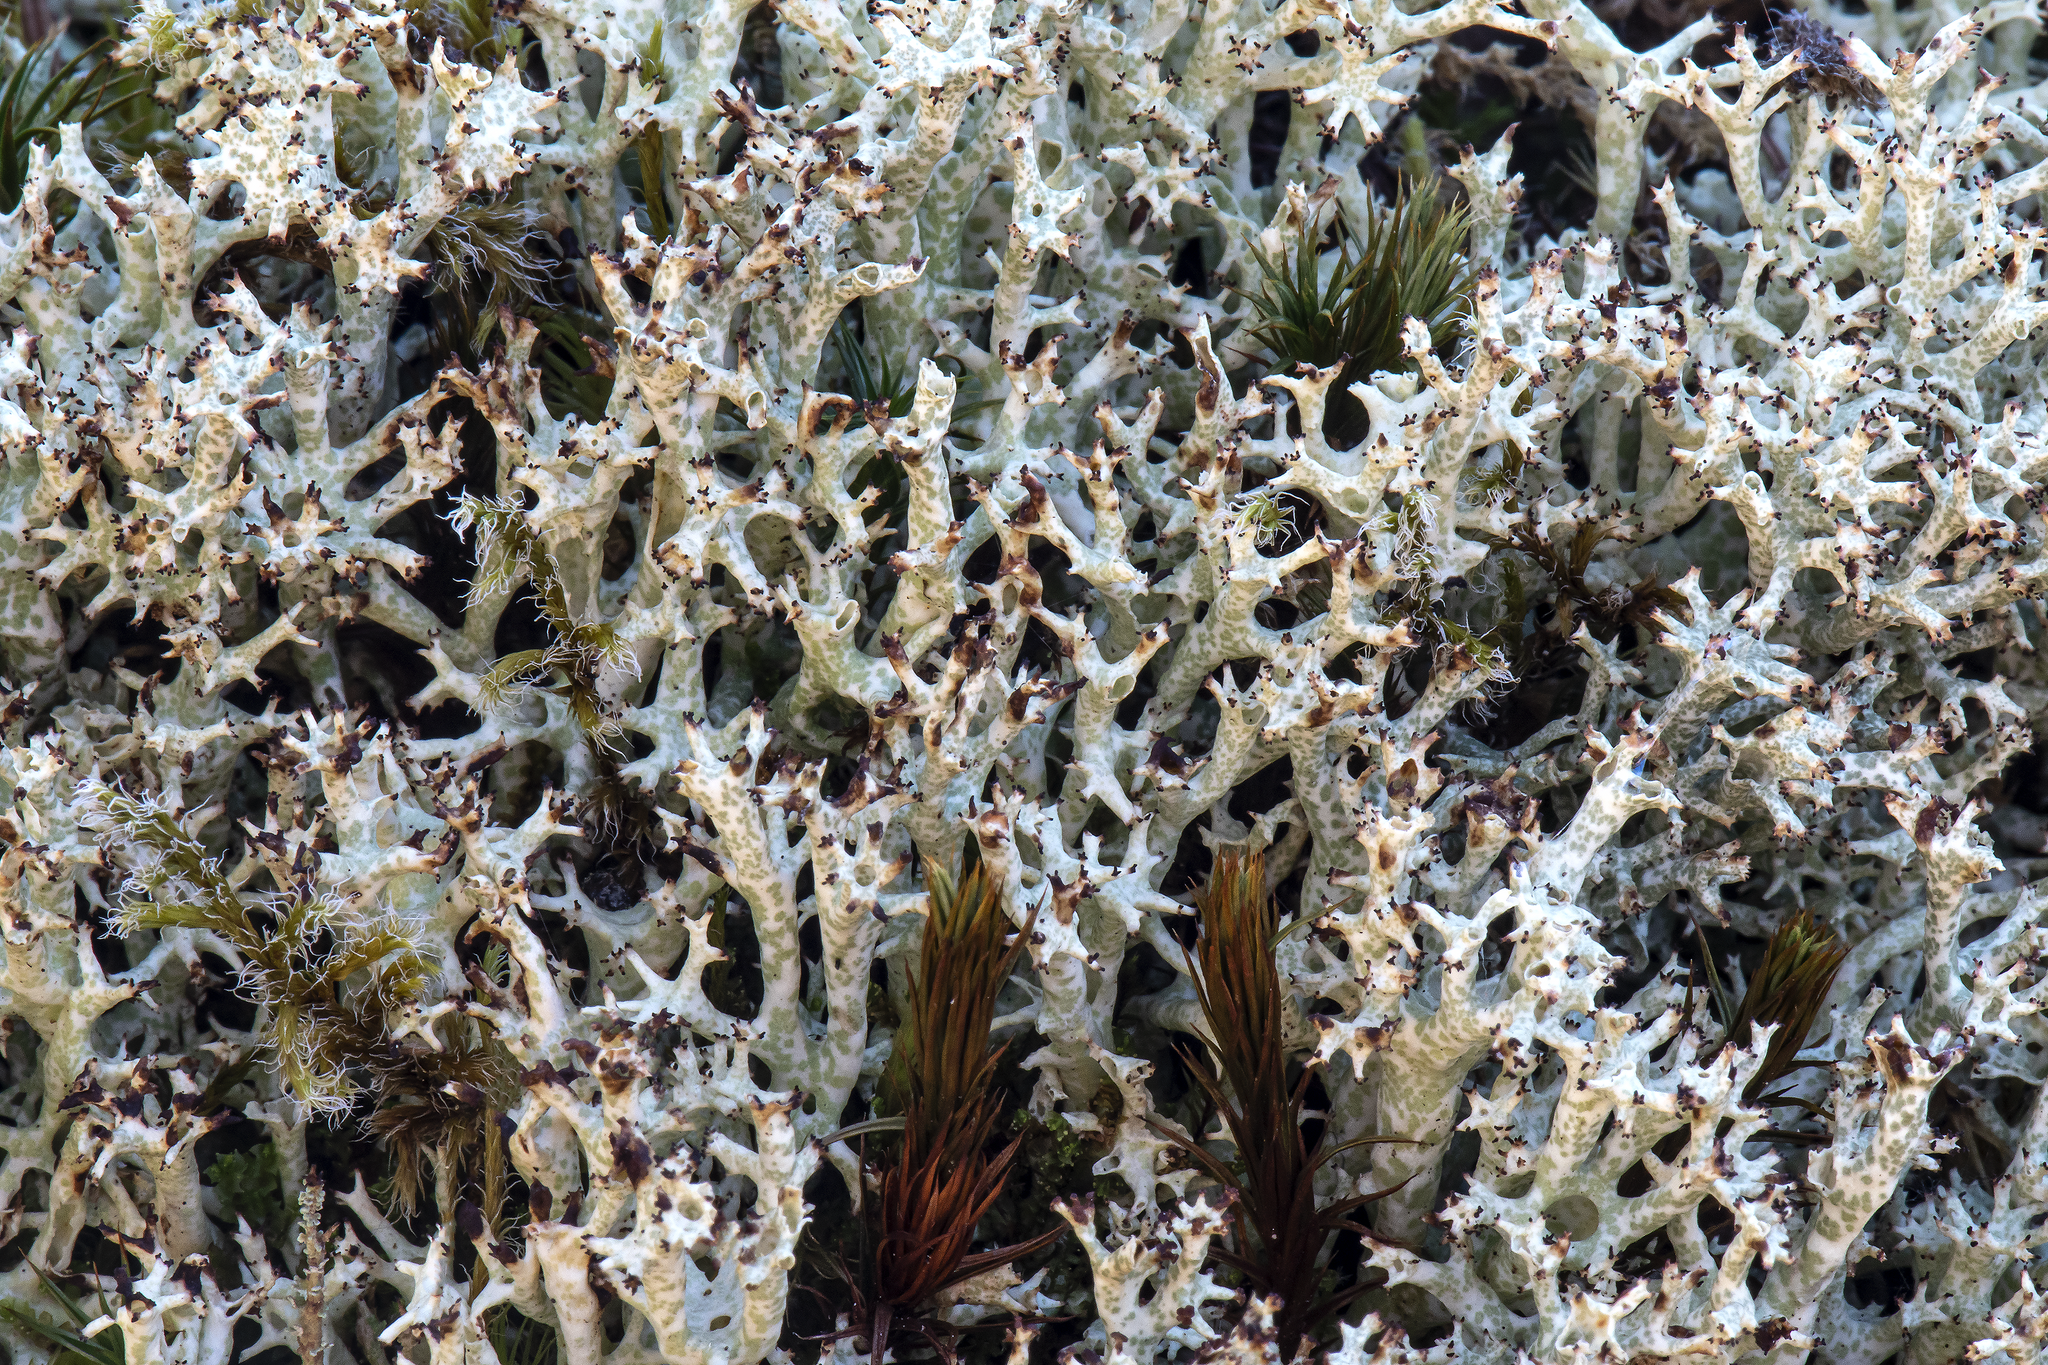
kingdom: Fungi
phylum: Ascomycota
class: Lecanoromycetes
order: Lecanorales
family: Cladoniaceae
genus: Cladonia
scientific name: Cladonia uncialis
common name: Thorn lichen
